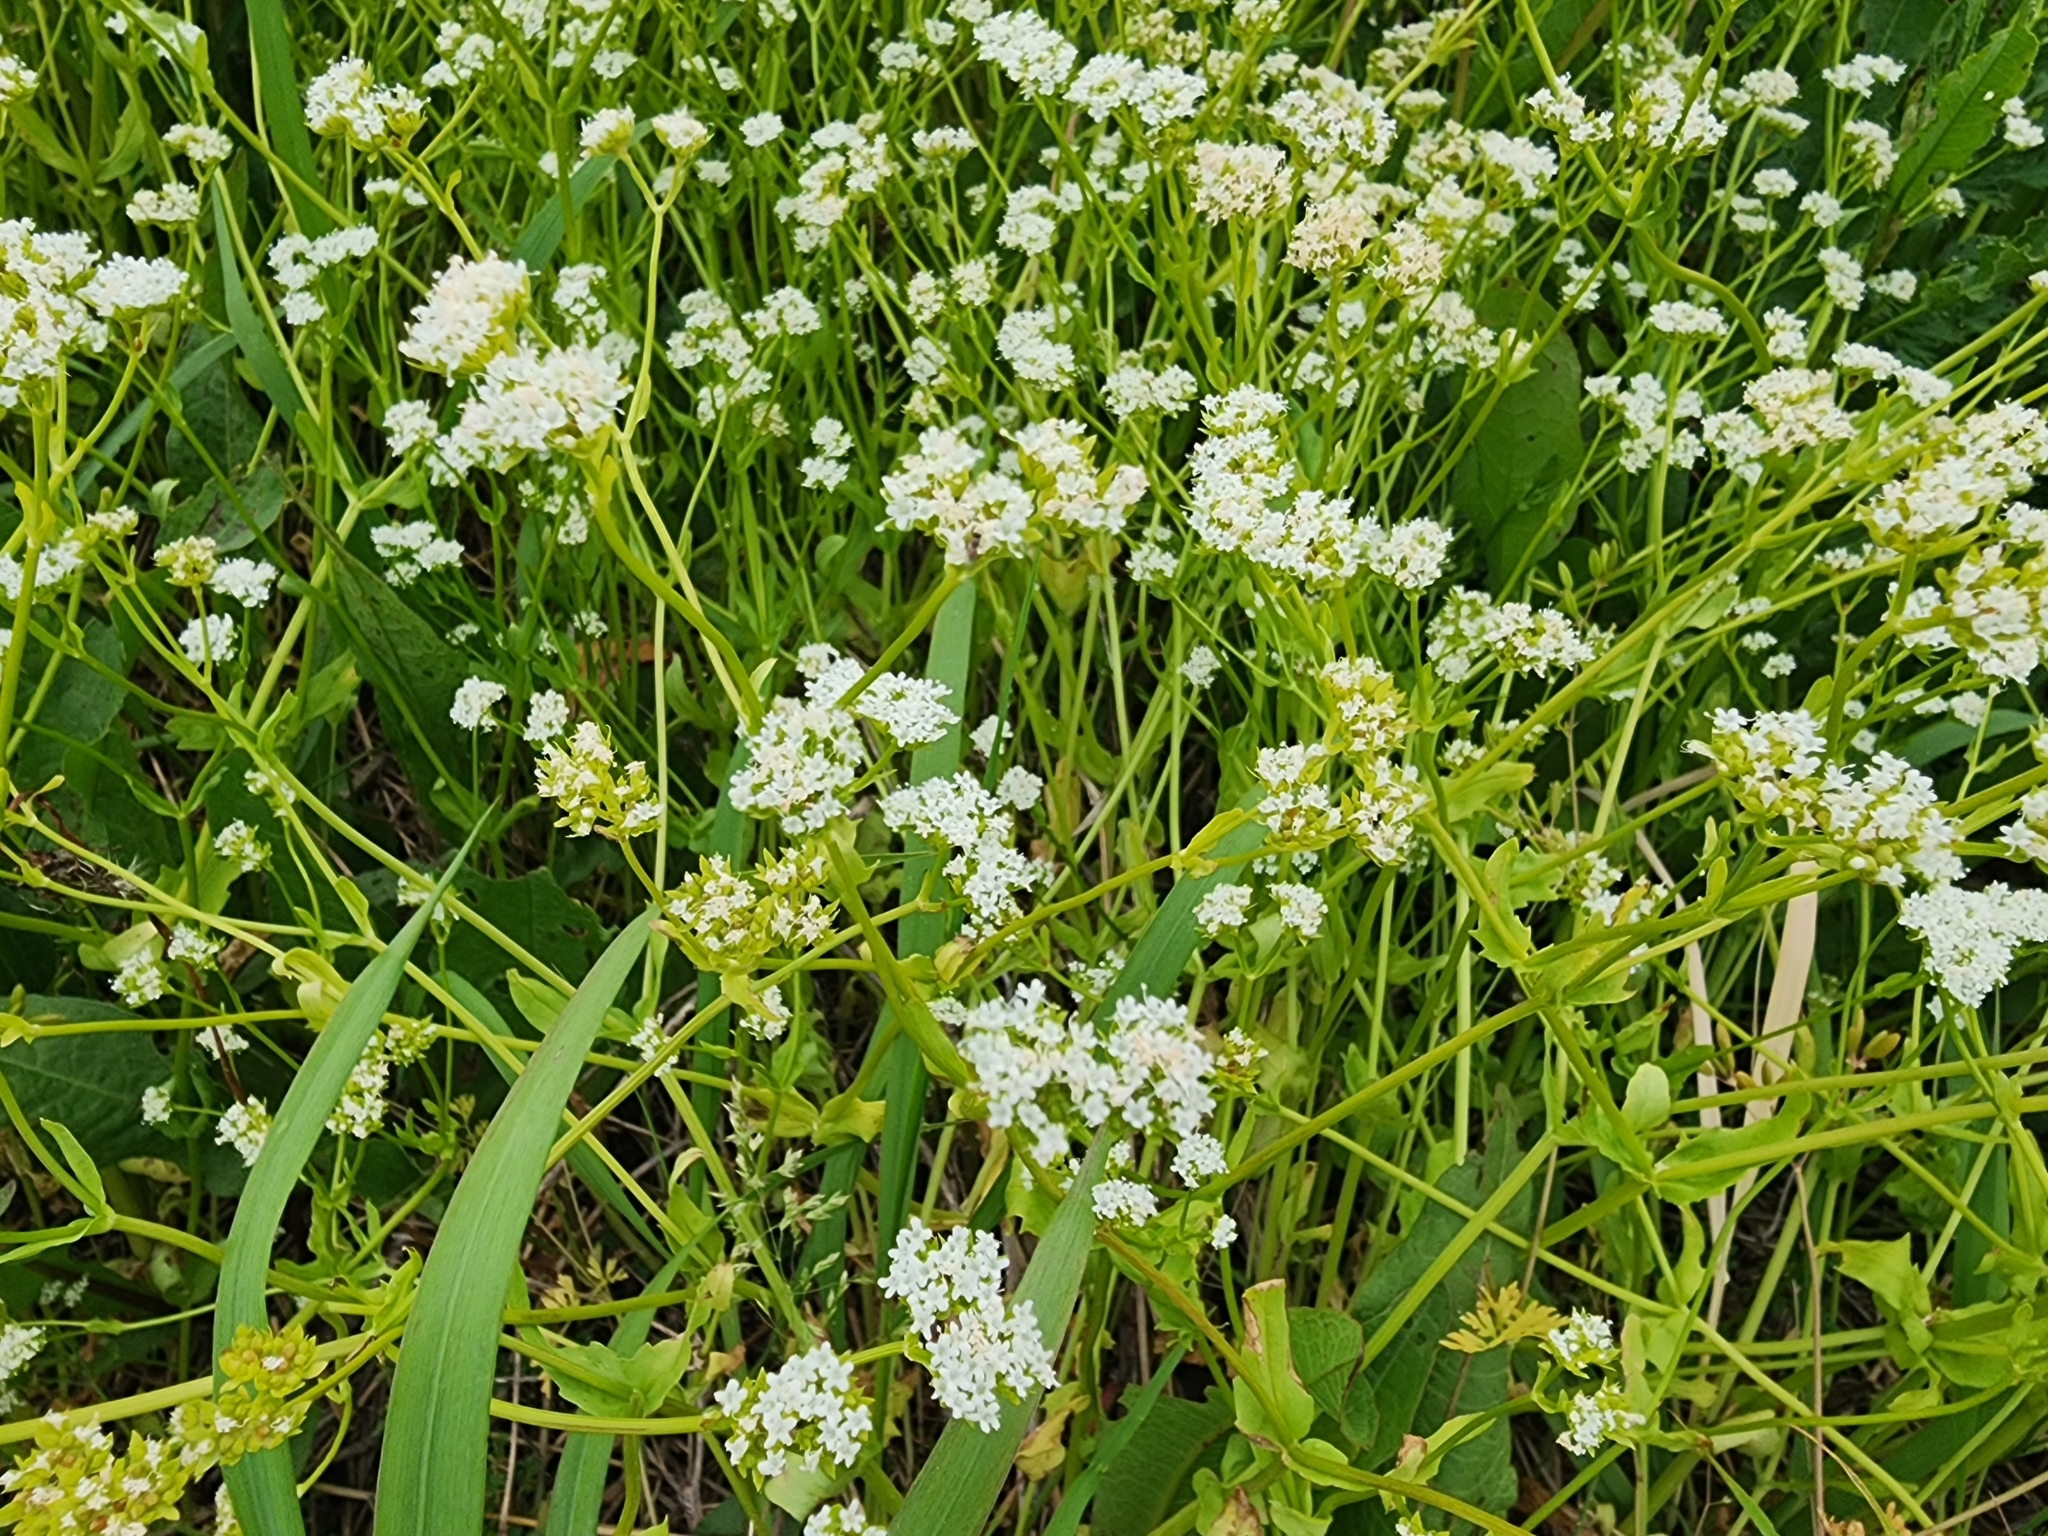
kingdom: Plantae
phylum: Tracheophyta
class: Magnoliopsida
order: Dipsacales
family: Caprifoliaceae
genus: Valerianella
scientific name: Valerianella radiata
